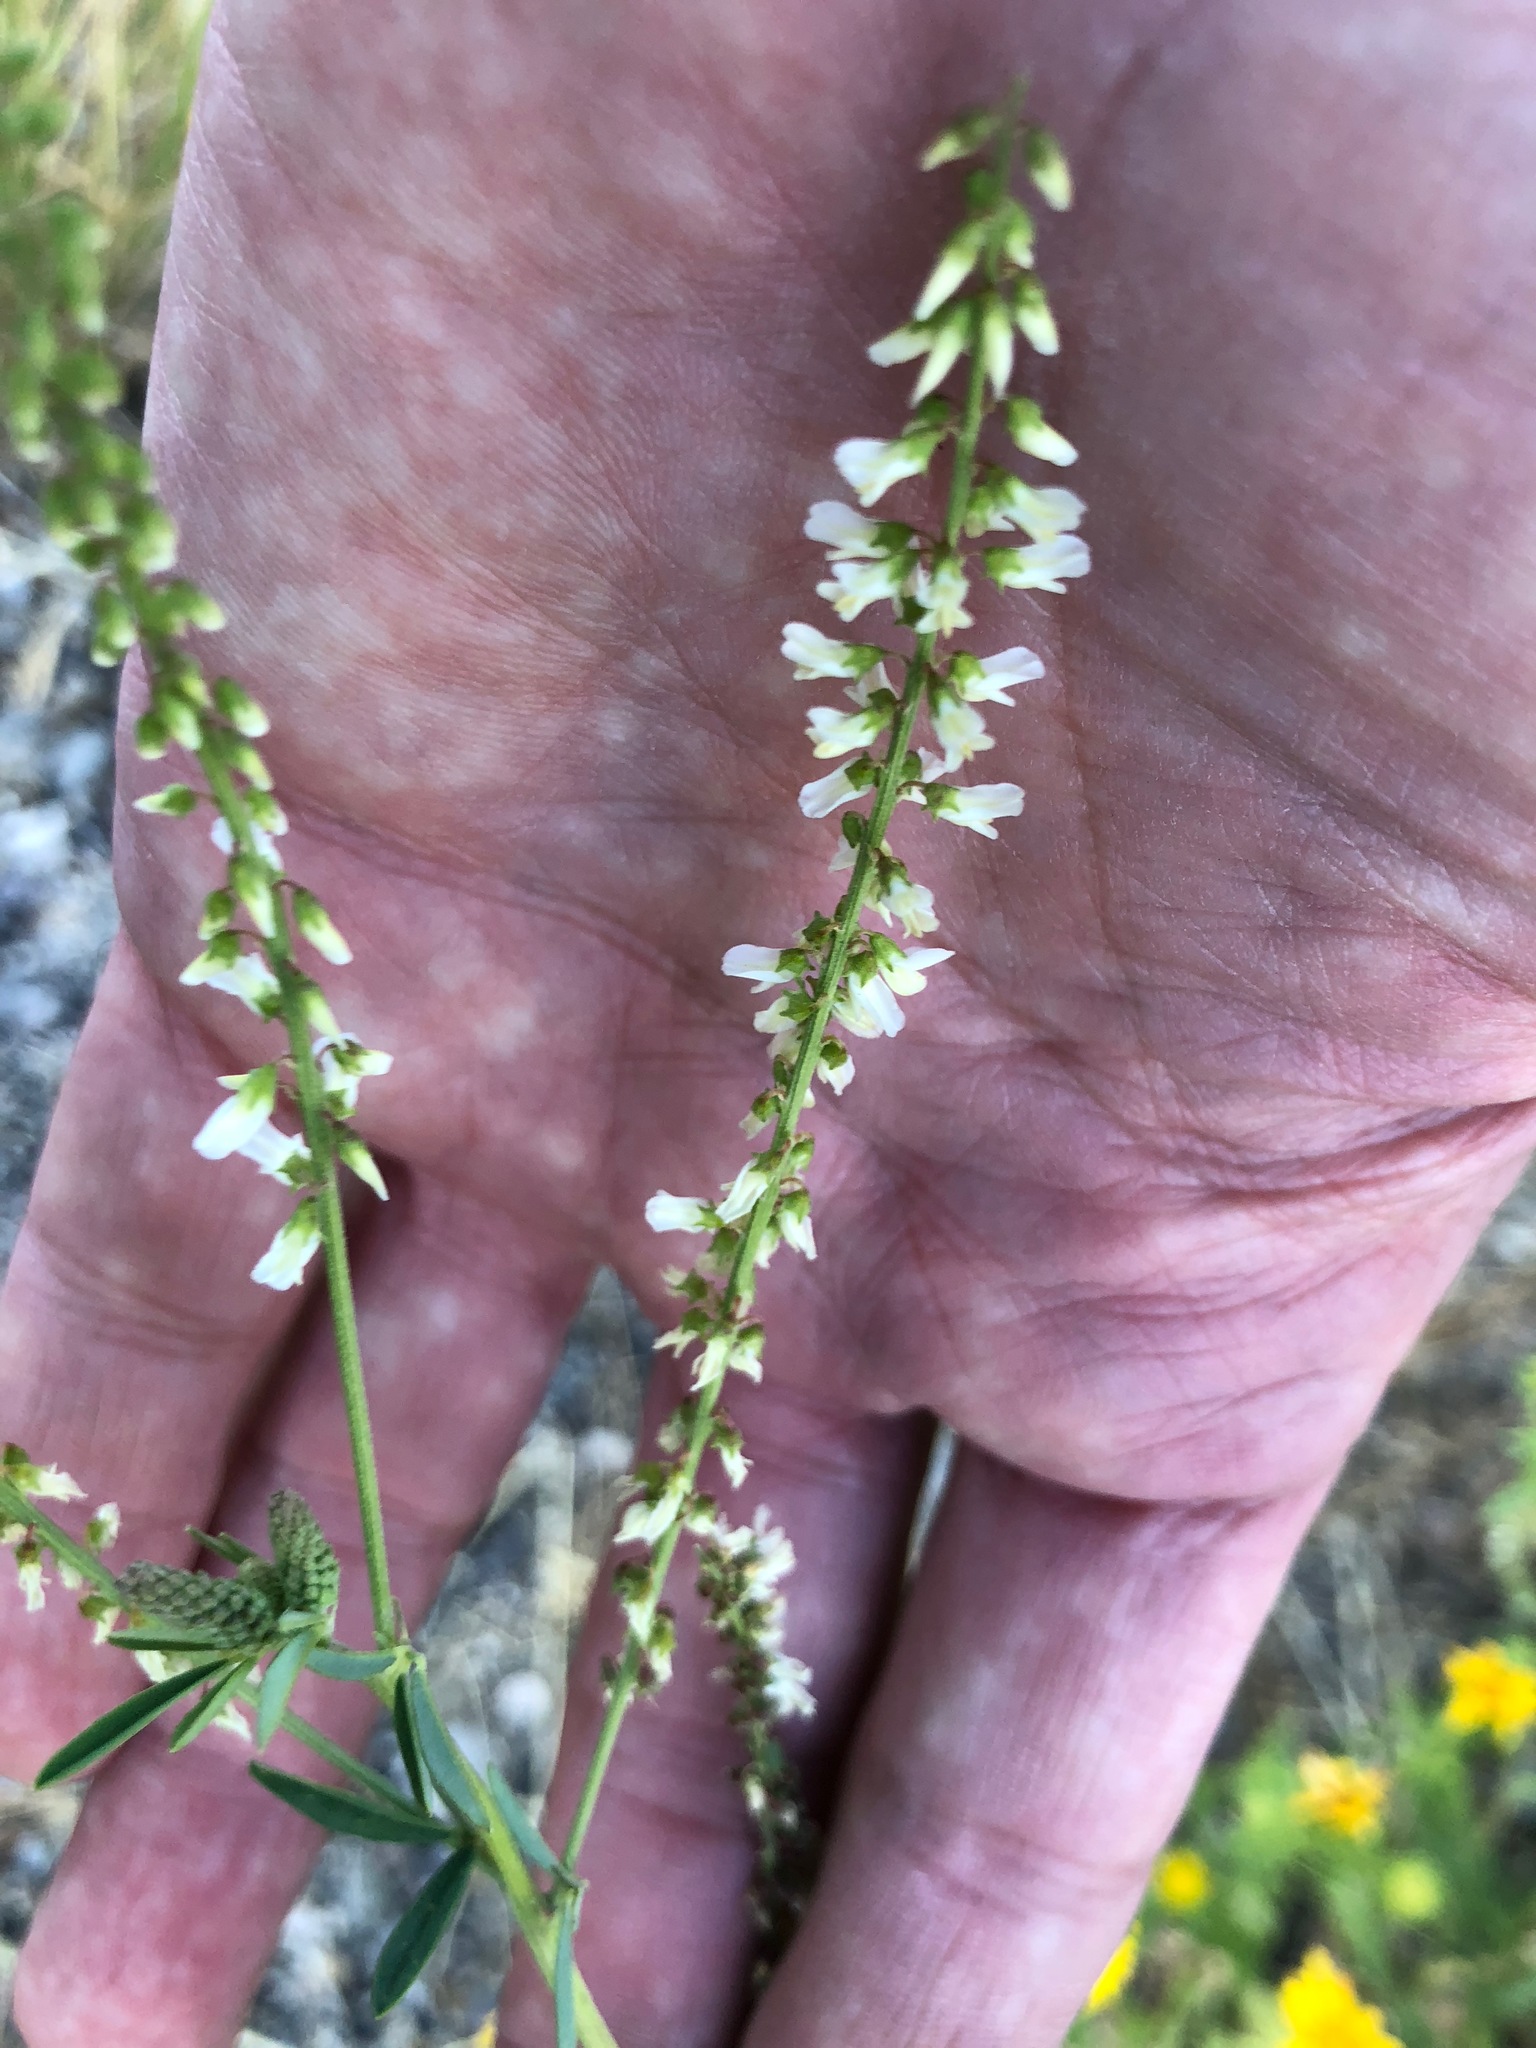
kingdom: Plantae
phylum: Tracheophyta
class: Magnoliopsida
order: Fabales
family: Fabaceae
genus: Melilotus
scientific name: Melilotus albus
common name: White melilot
